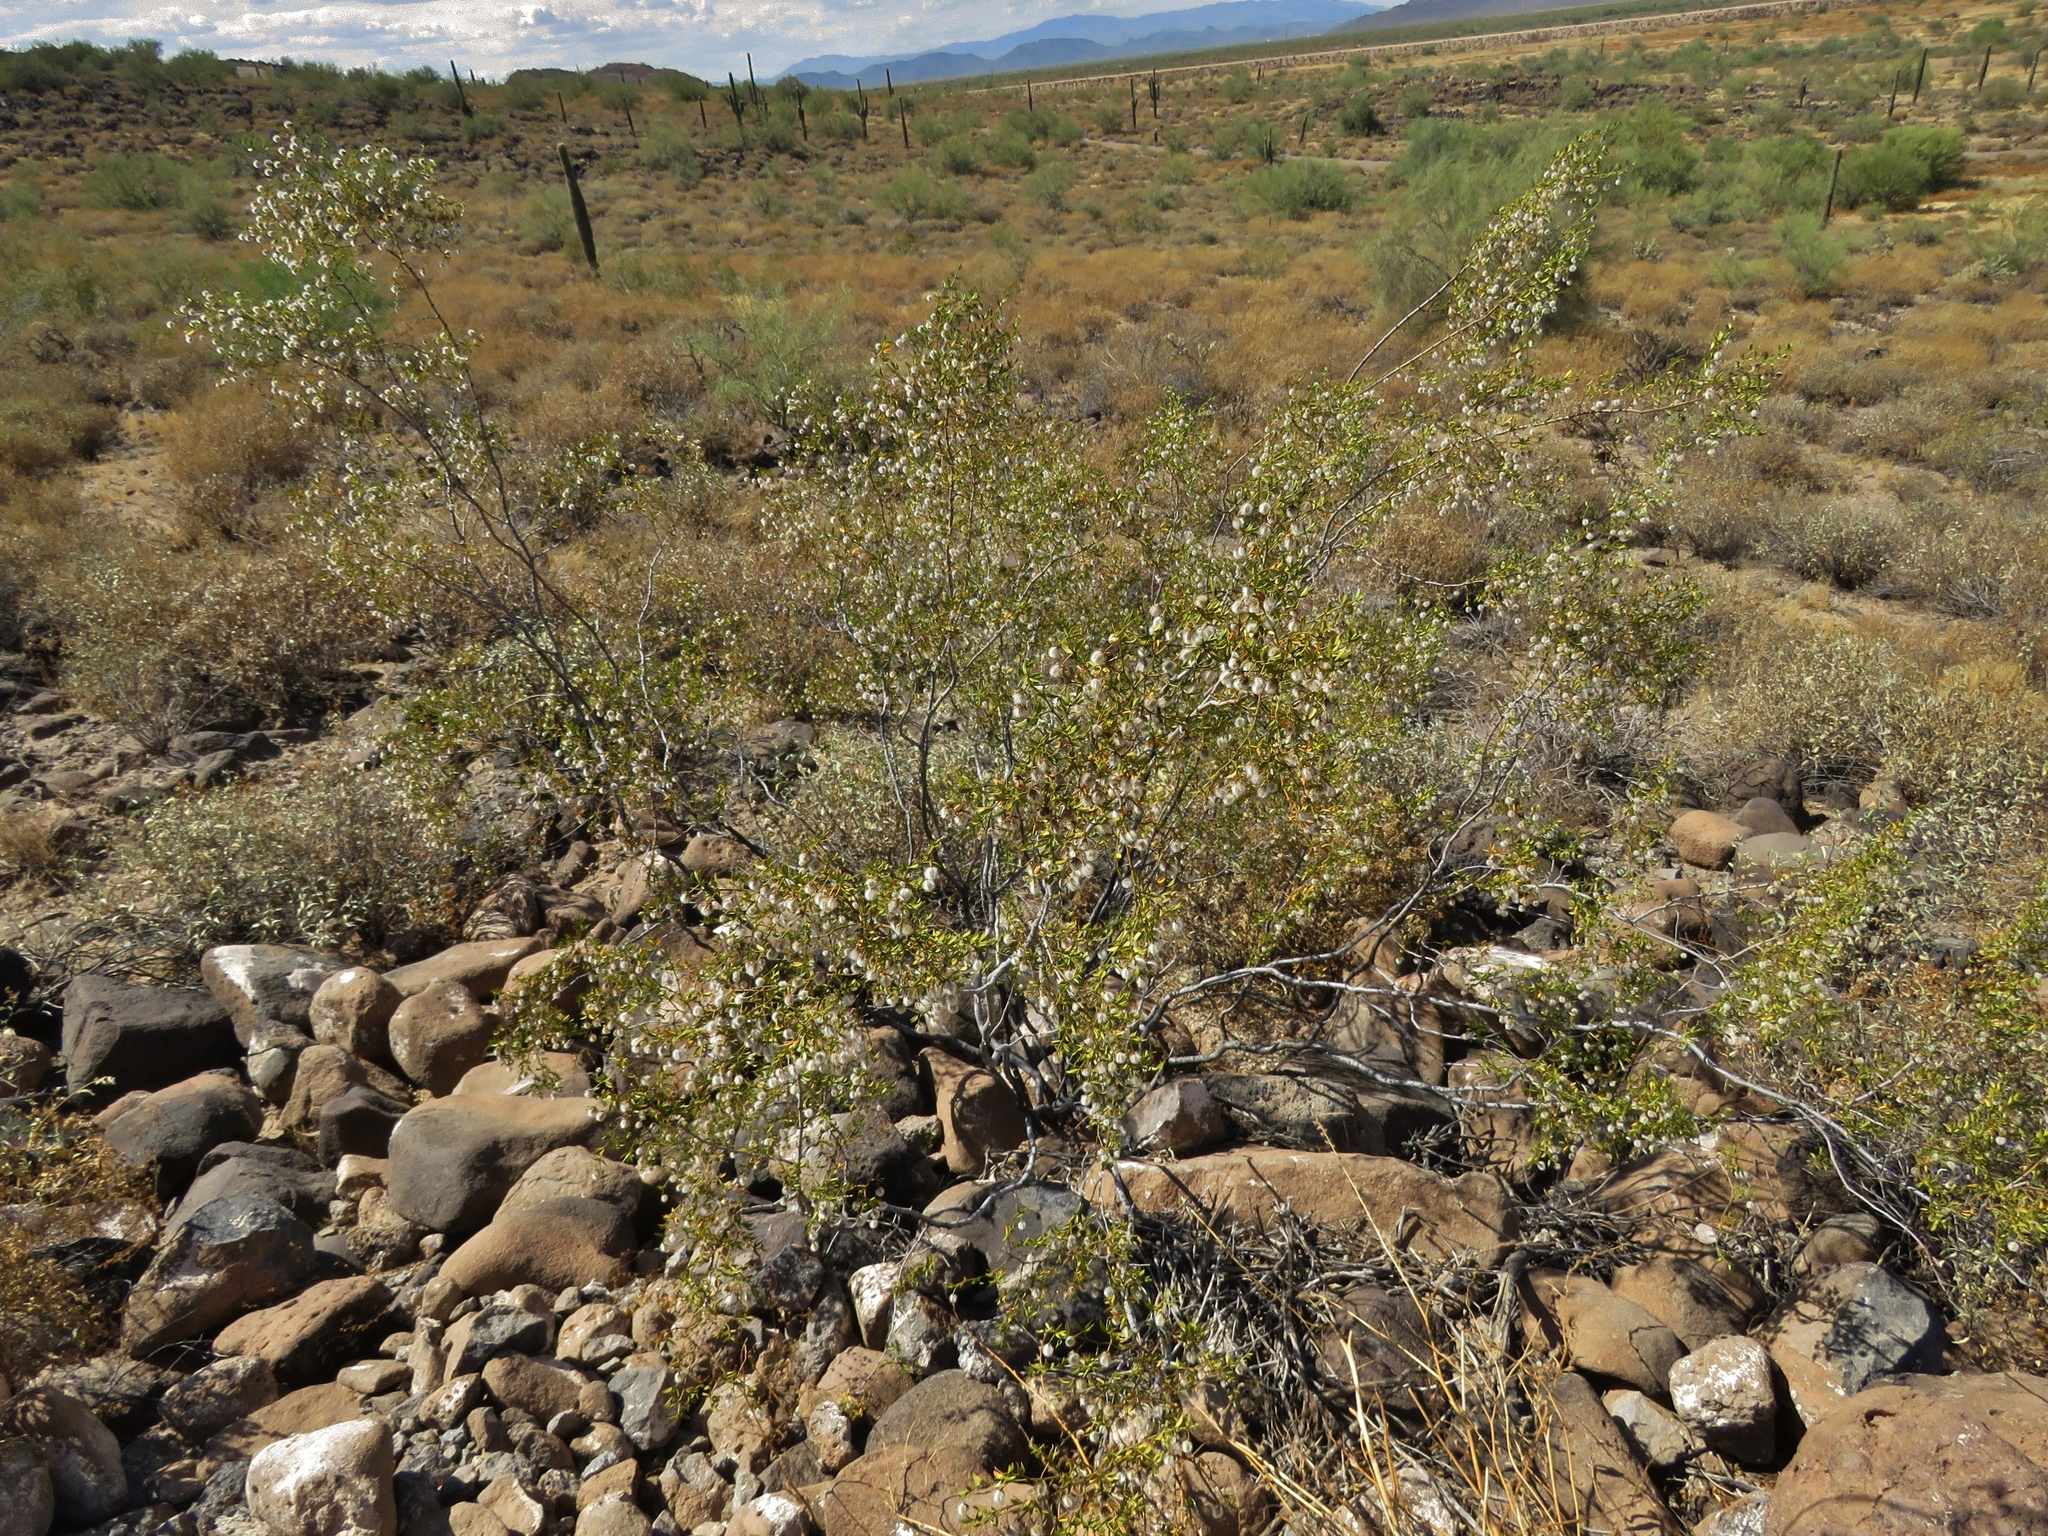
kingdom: Plantae
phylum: Tracheophyta
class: Magnoliopsida
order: Zygophyllales
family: Zygophyllaceae
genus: Larrea
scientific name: Larrea tridentata
